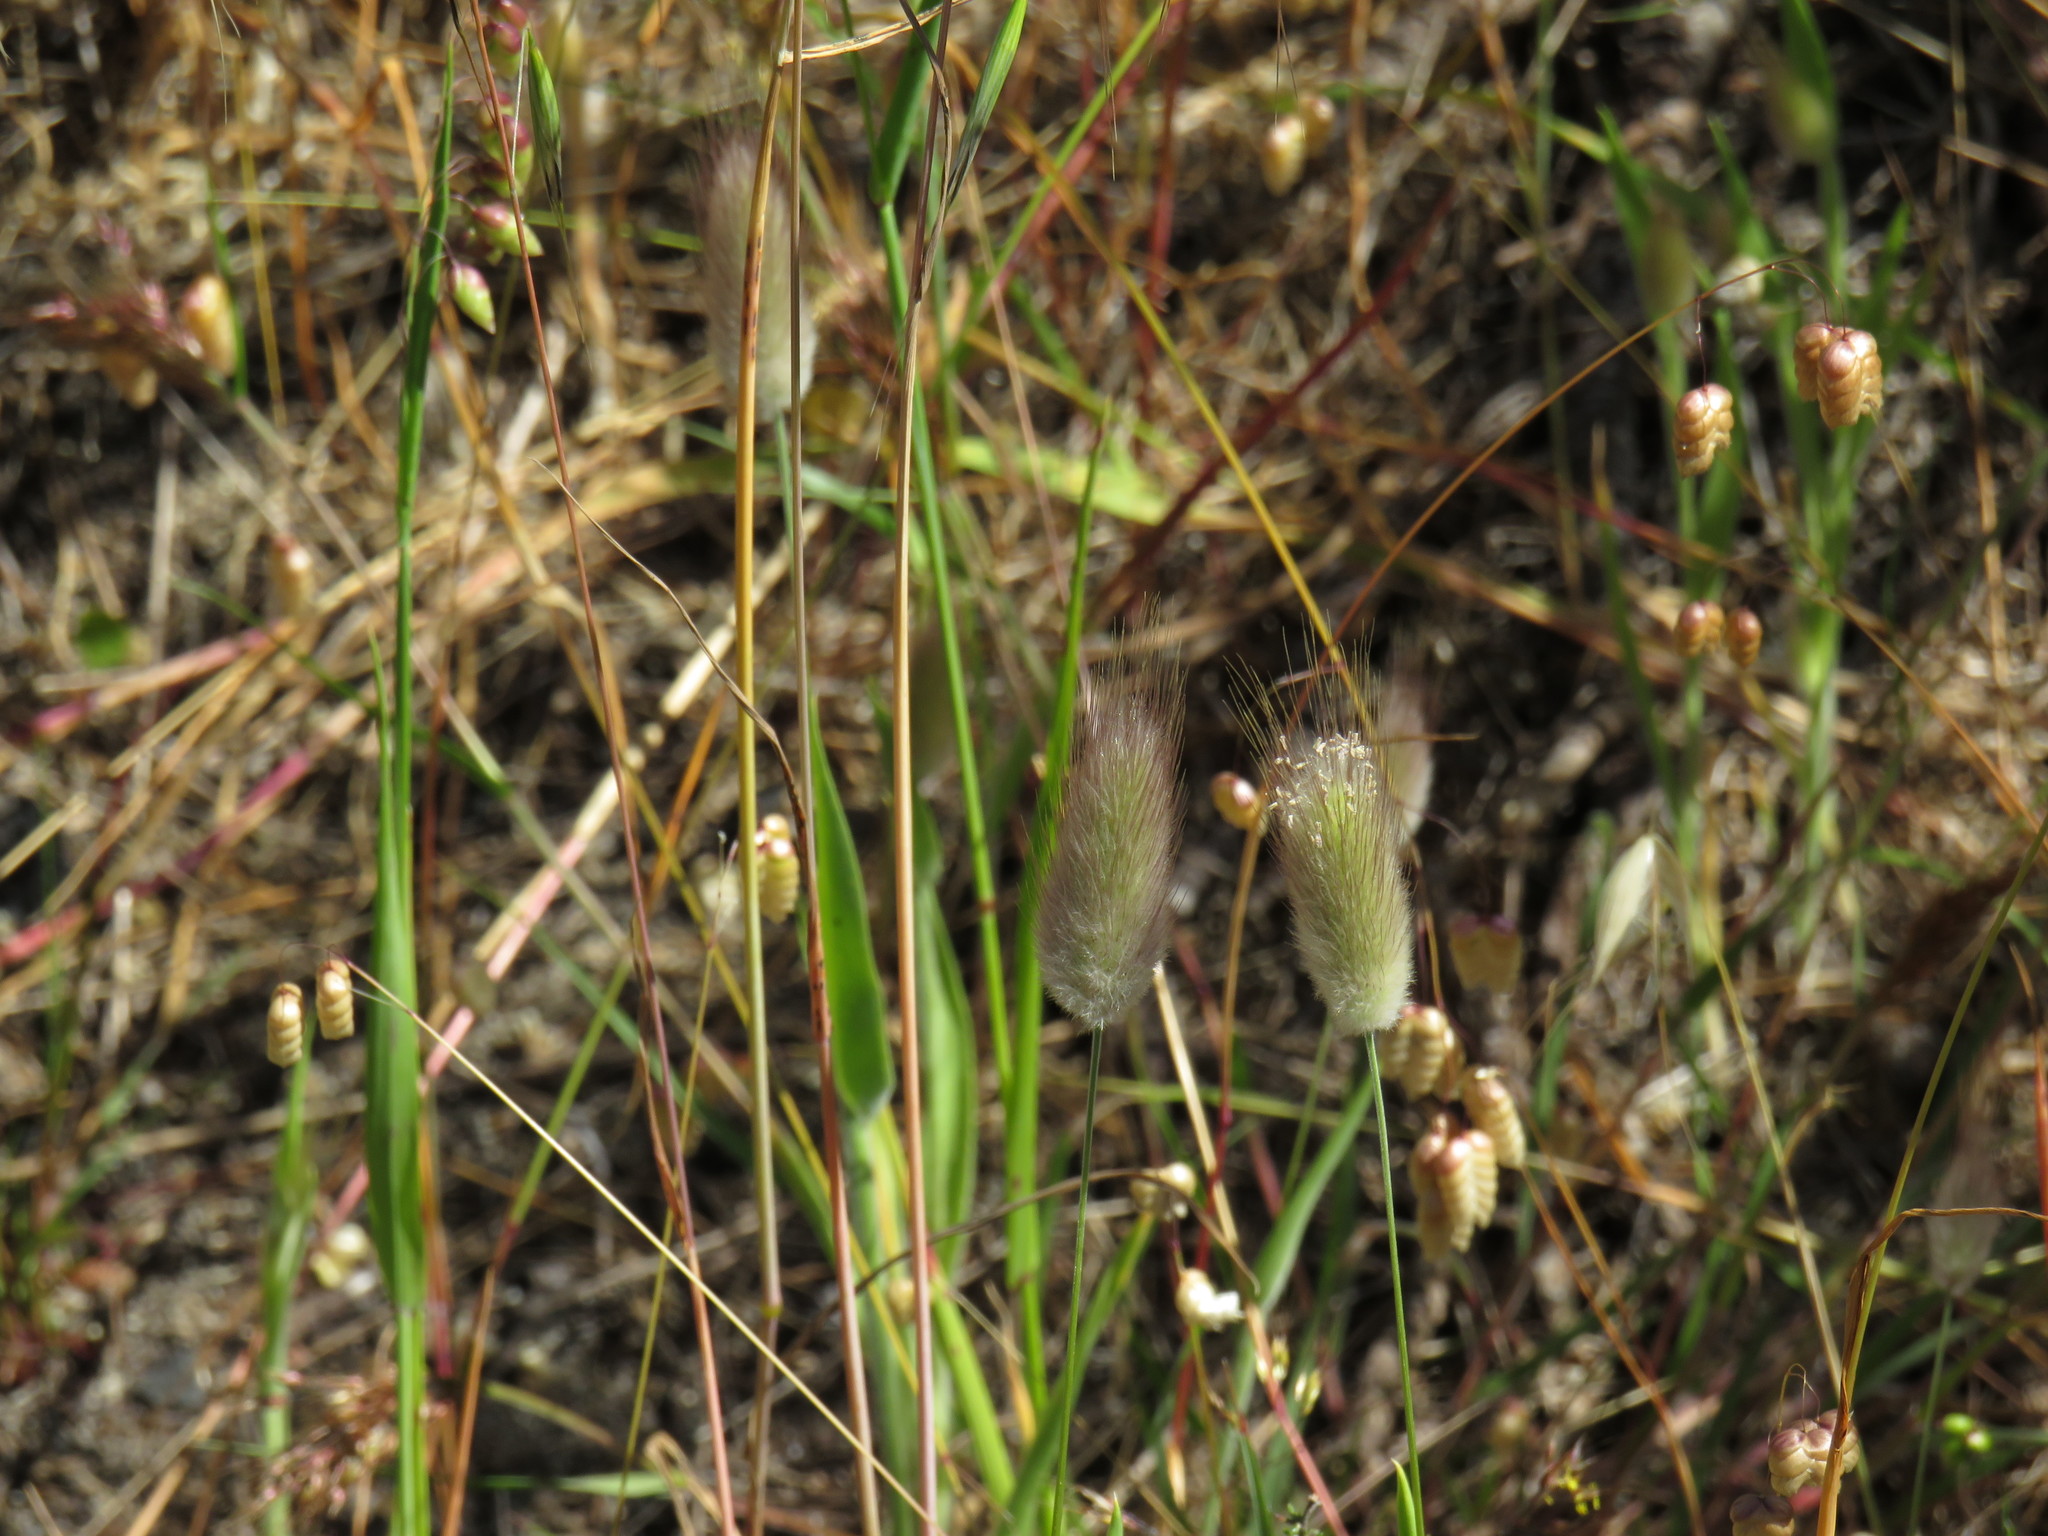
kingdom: Plantae
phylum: Tracheophyta
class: Liliopsida
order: Poales
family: Poaceae
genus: Lagurus
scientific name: Lagurus ovatus
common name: Hare's-tail
